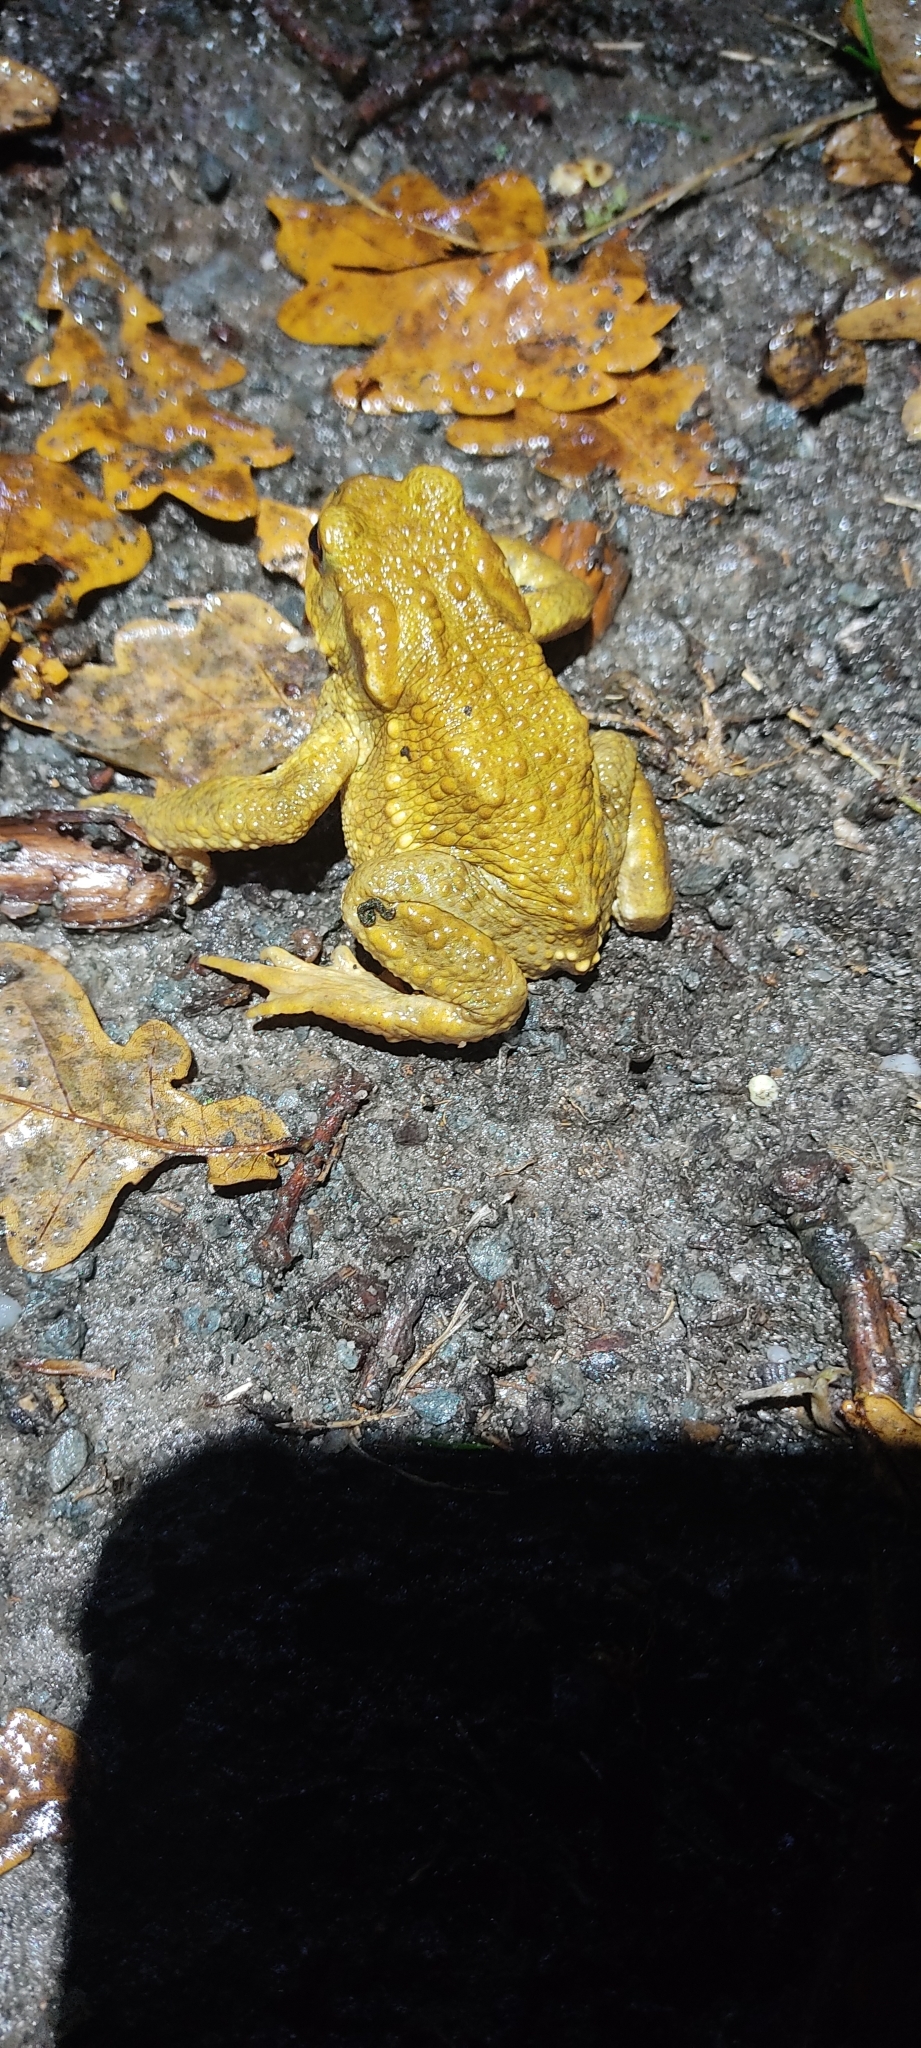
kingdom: Animalia
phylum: Chordata
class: Amphibia
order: Anura
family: Bufonidae
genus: Bufo
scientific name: Bufo spinosus
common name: Western common toad
